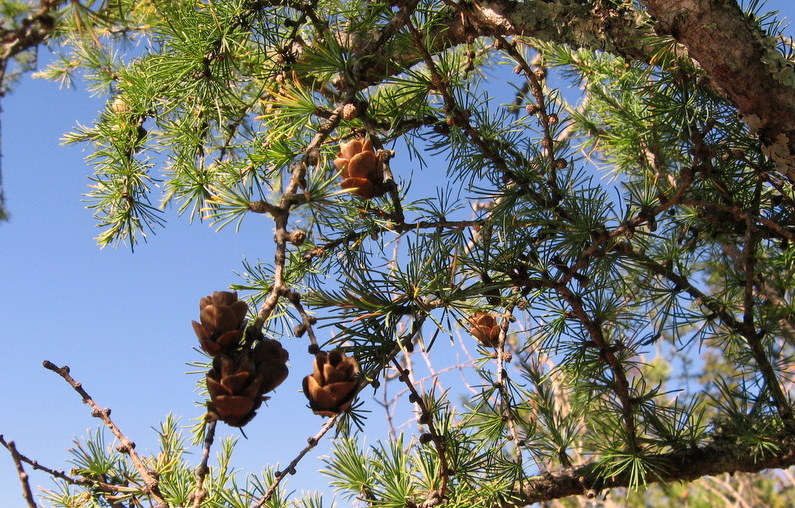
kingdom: Plantae
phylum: Tracheophyta
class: Pinopsida
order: Pinales
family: Pinaceae
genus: Larix
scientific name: Larix laricina
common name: American larch
